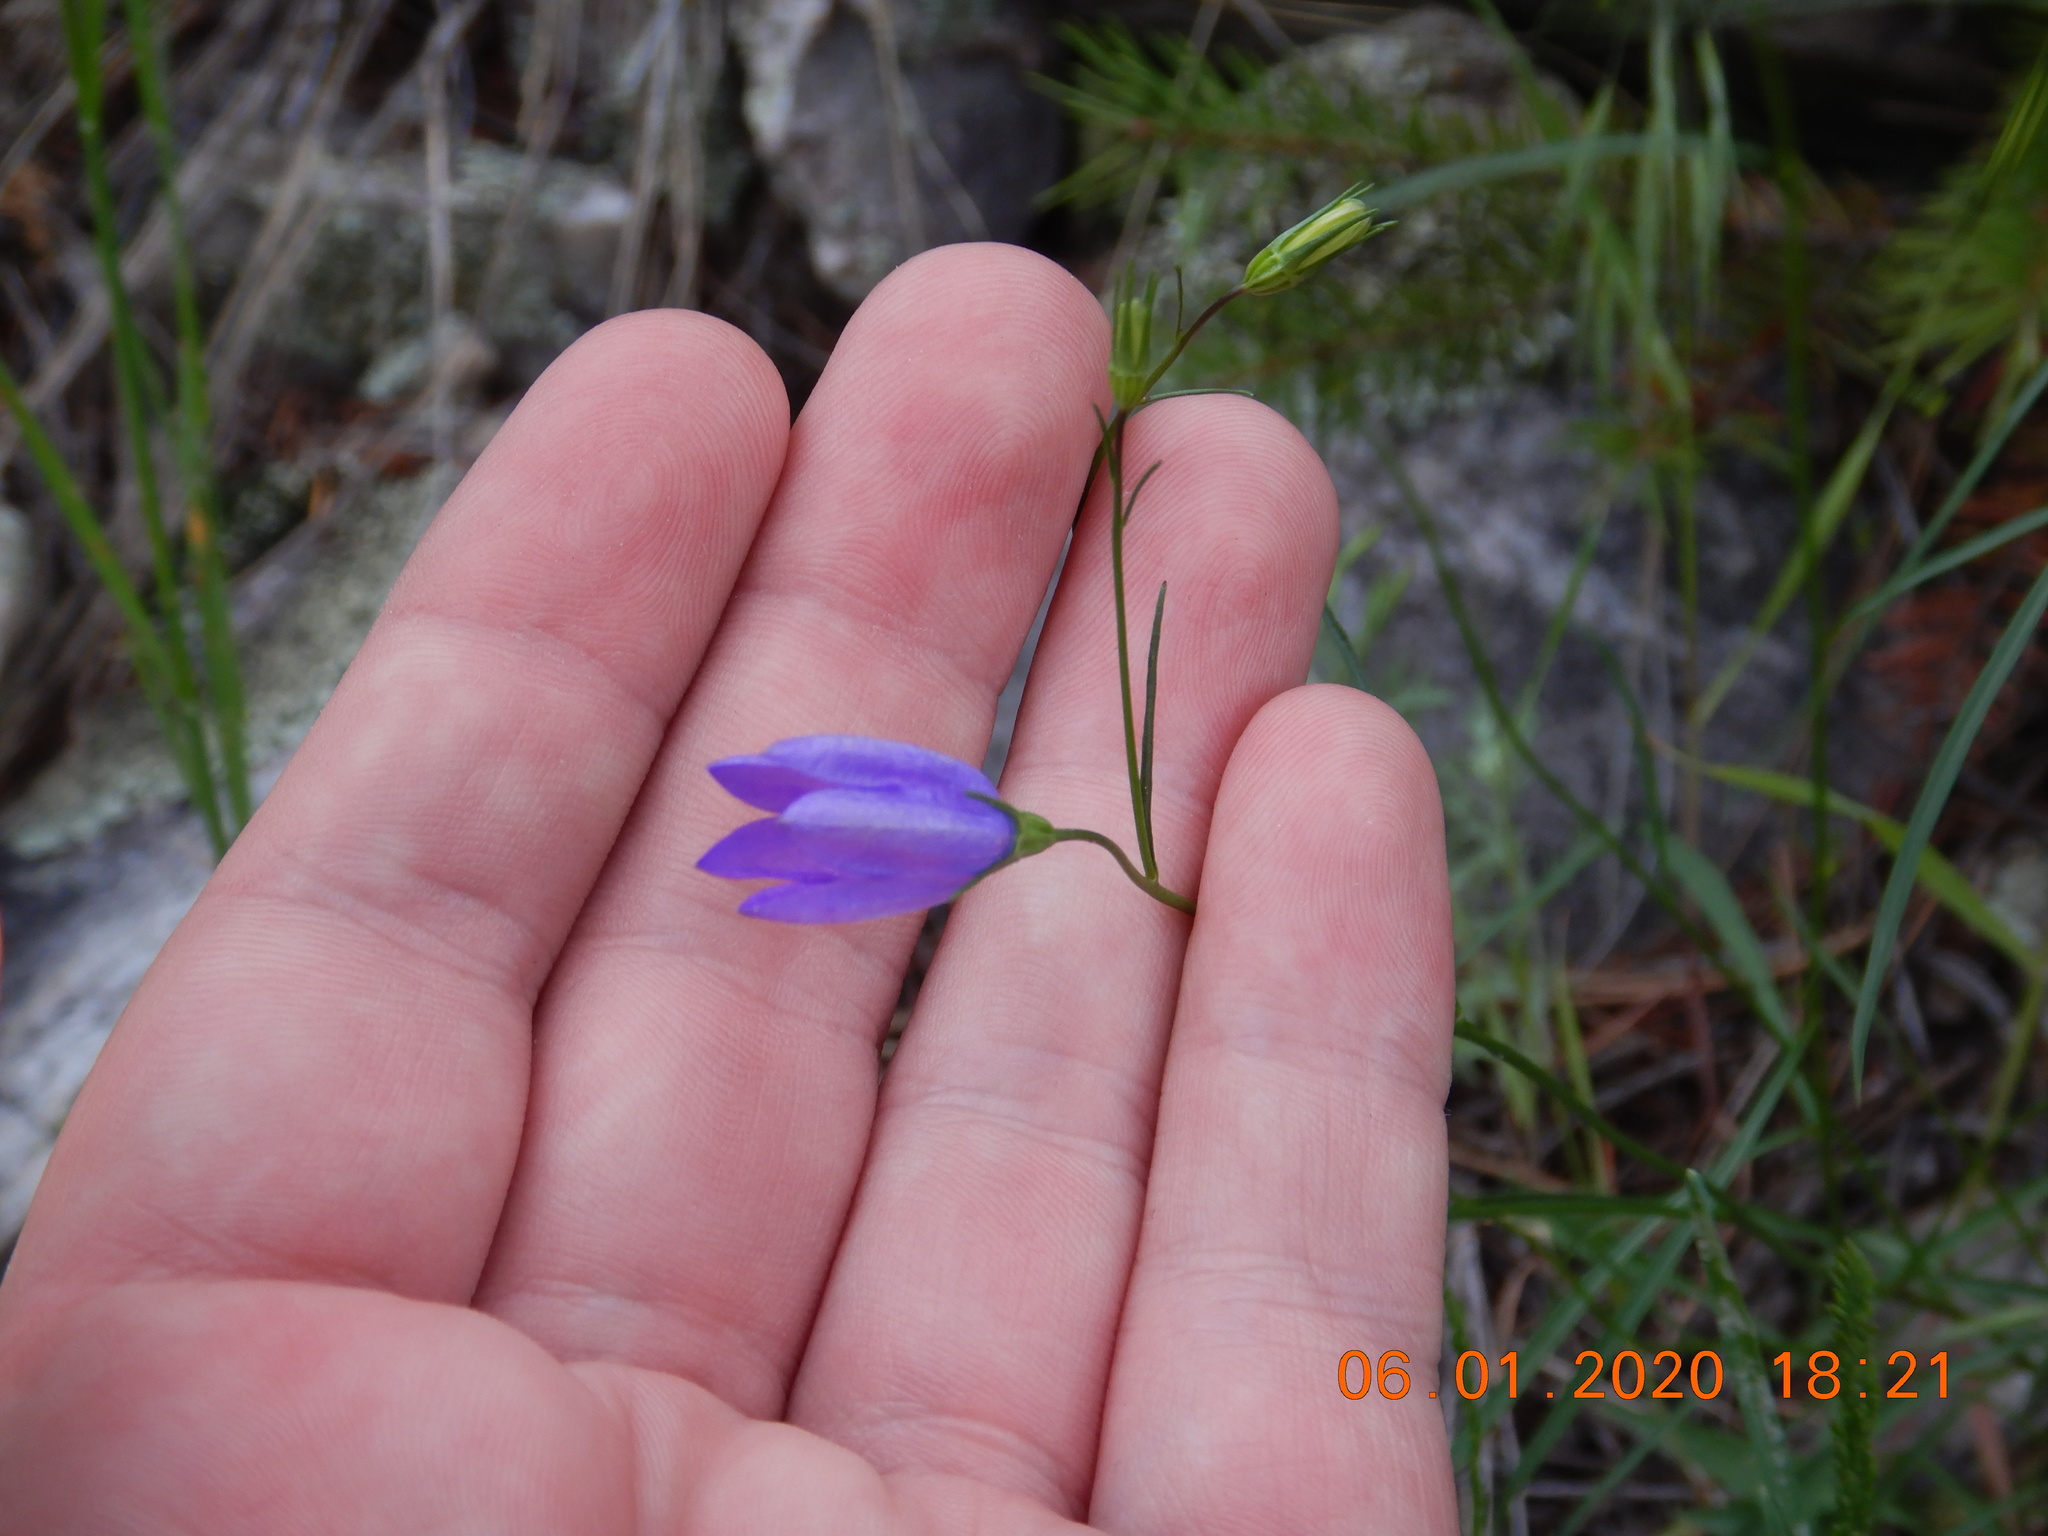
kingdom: Plantae
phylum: Tracheophyta
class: Magnoliopsida
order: Asterales
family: Campanulaceae
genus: Campanula
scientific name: Campanula petiolata
